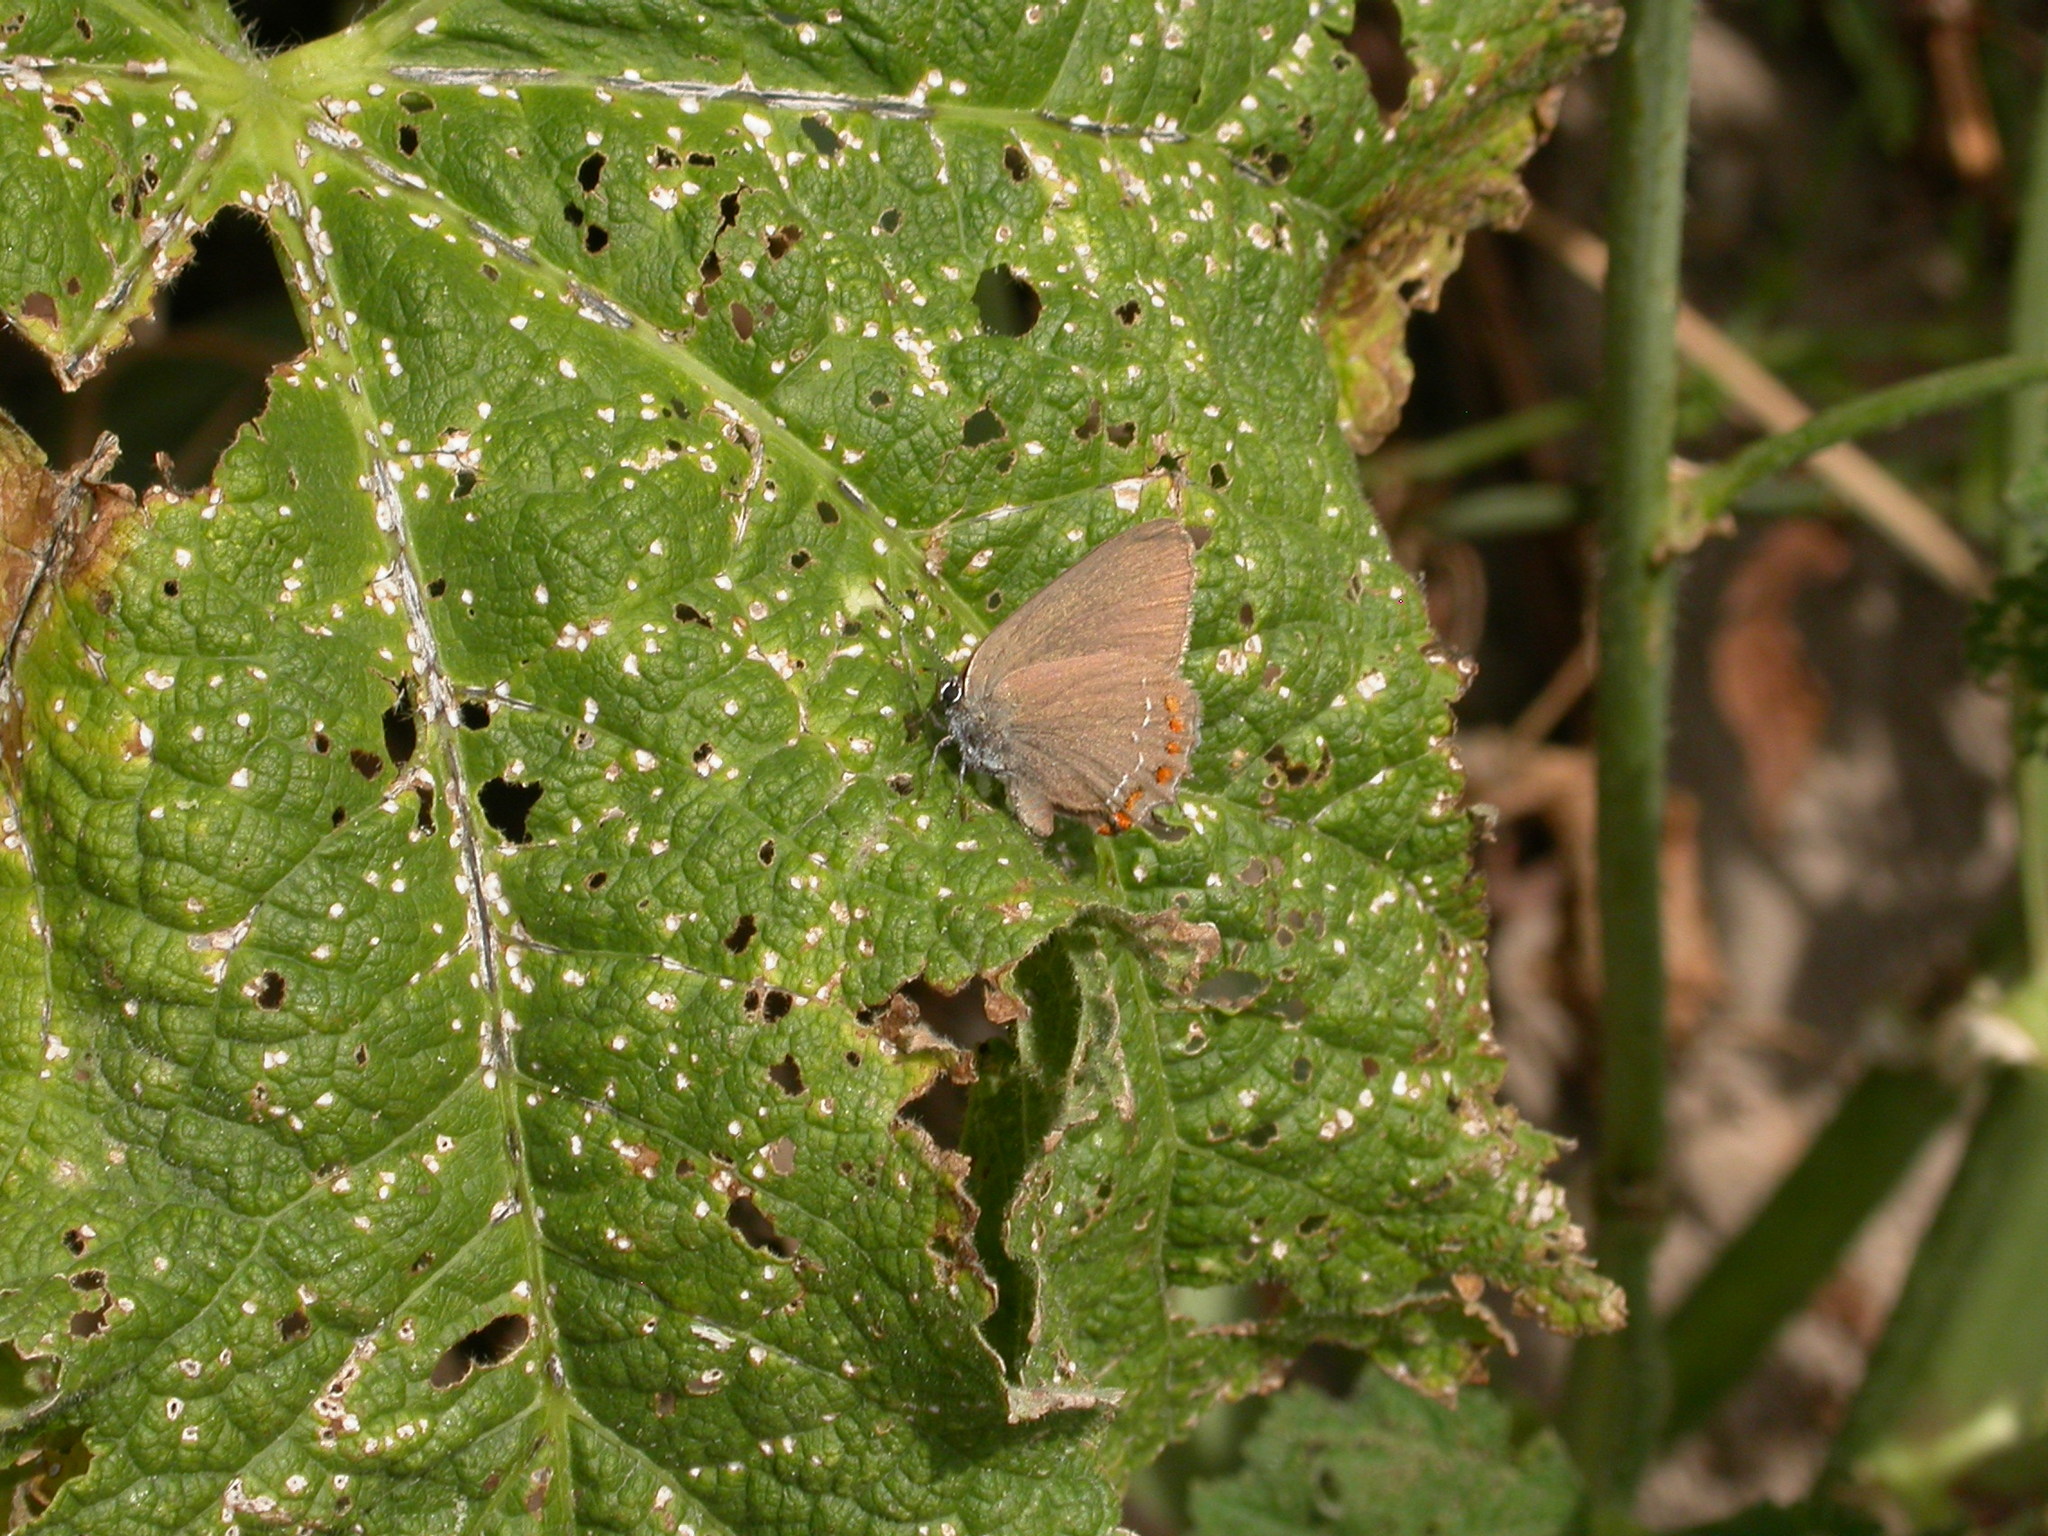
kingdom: Animalia
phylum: Arthropoda
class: Insecta
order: Lepidoptera
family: Lycaenidae
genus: Fixsenia
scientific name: Fixsenia esculi
